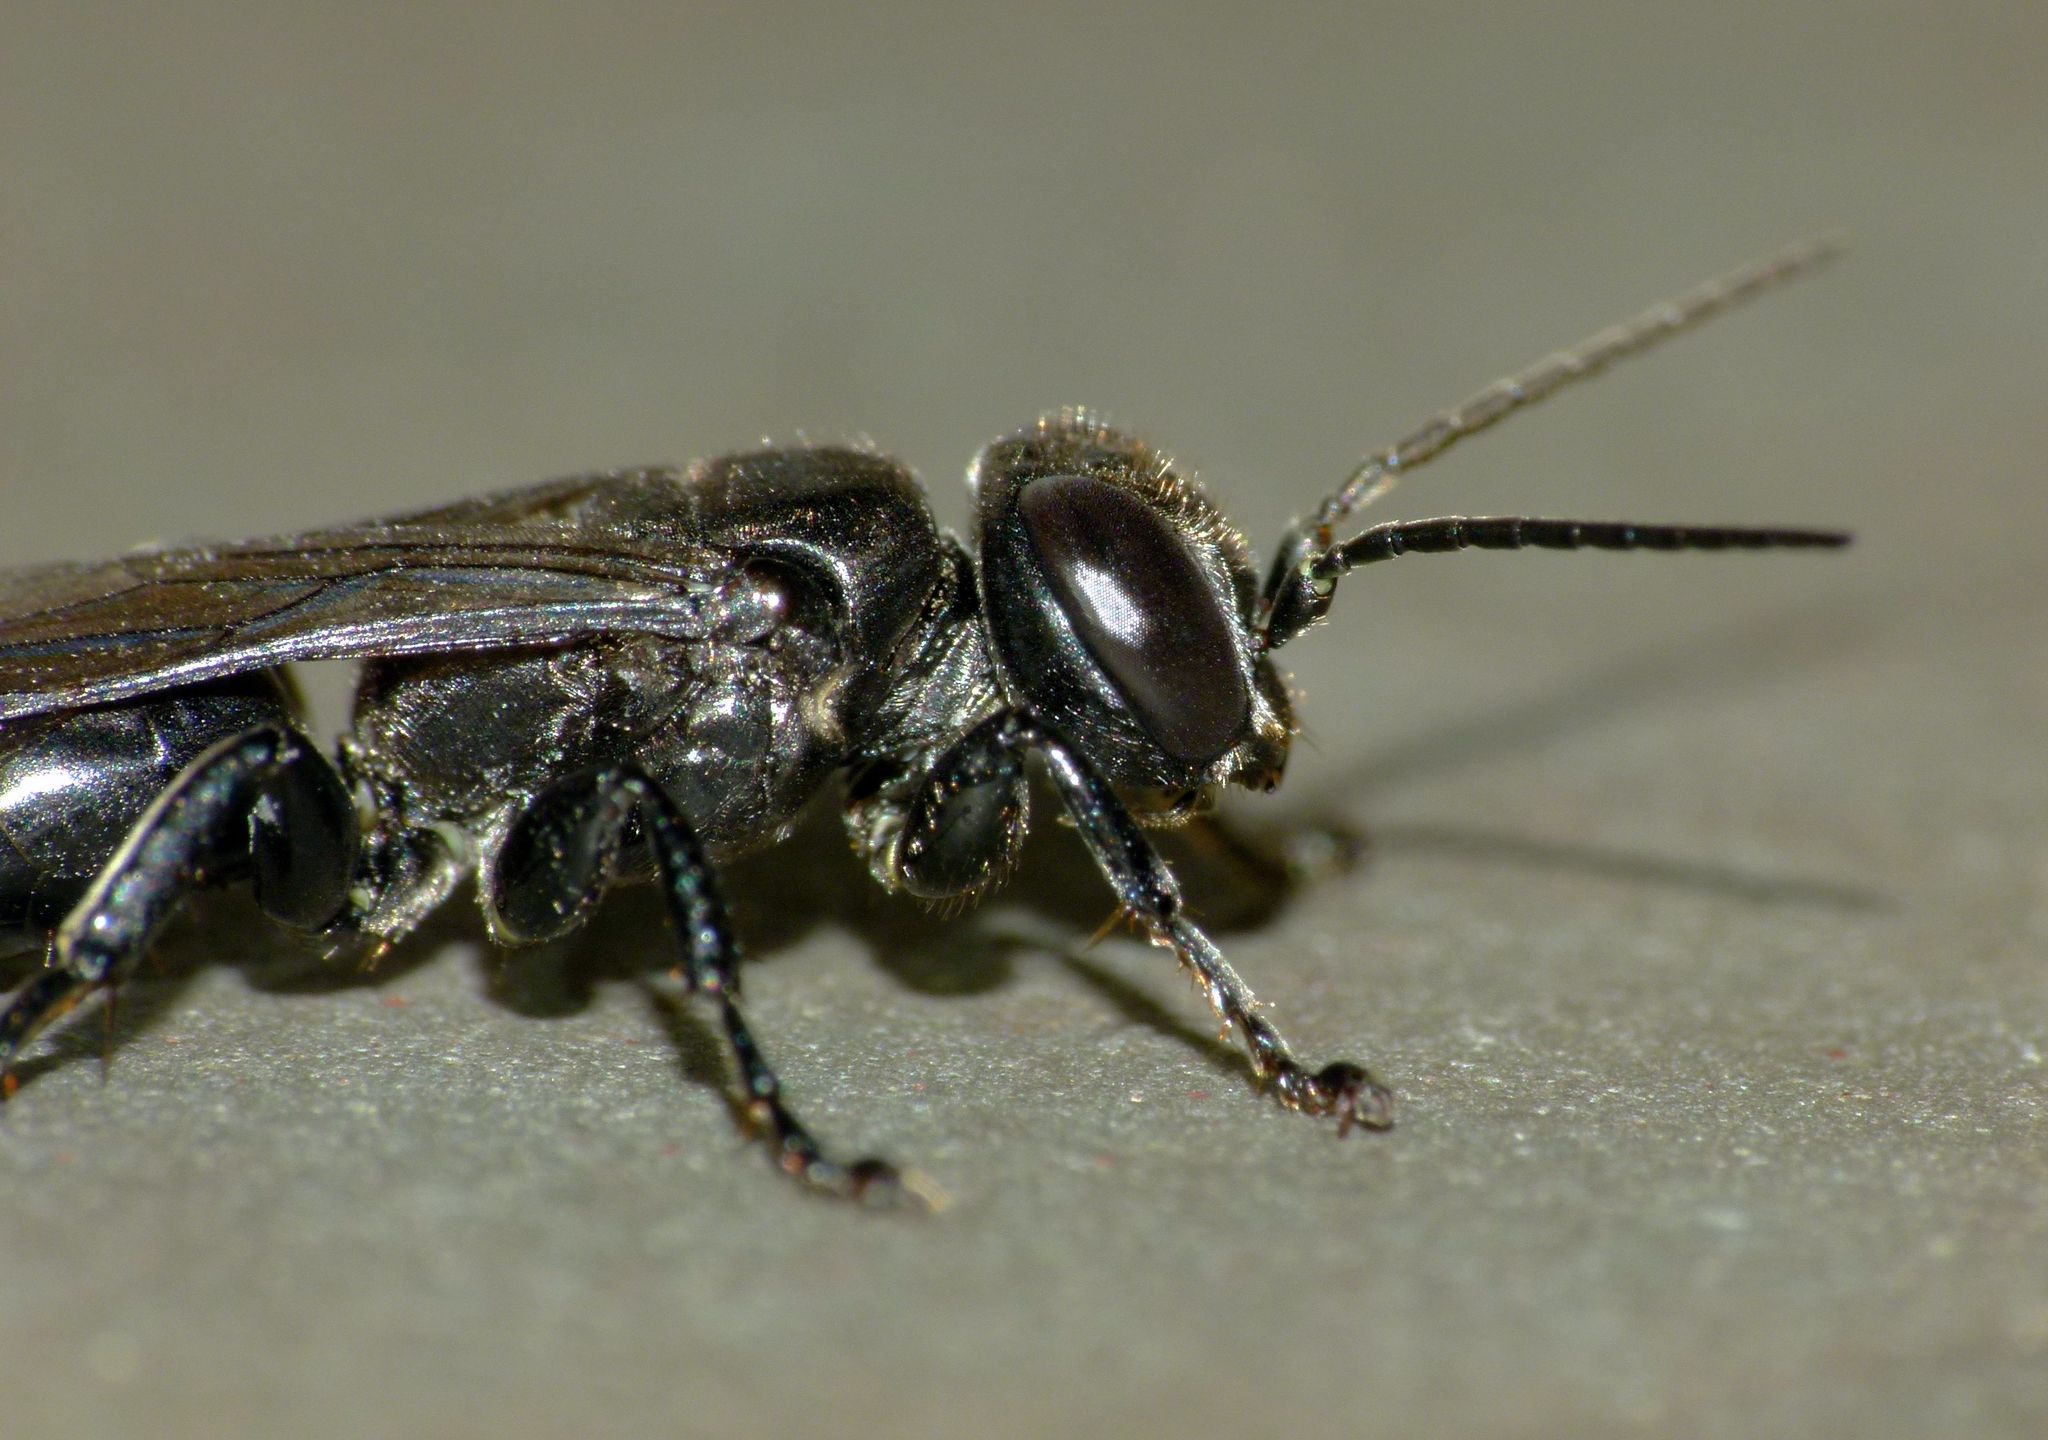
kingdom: Animalia
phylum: Arthropoda
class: Insecta
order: Hymenoptera
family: Crabronidae
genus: Tachysphex
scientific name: Tachysphex nigerrimus
